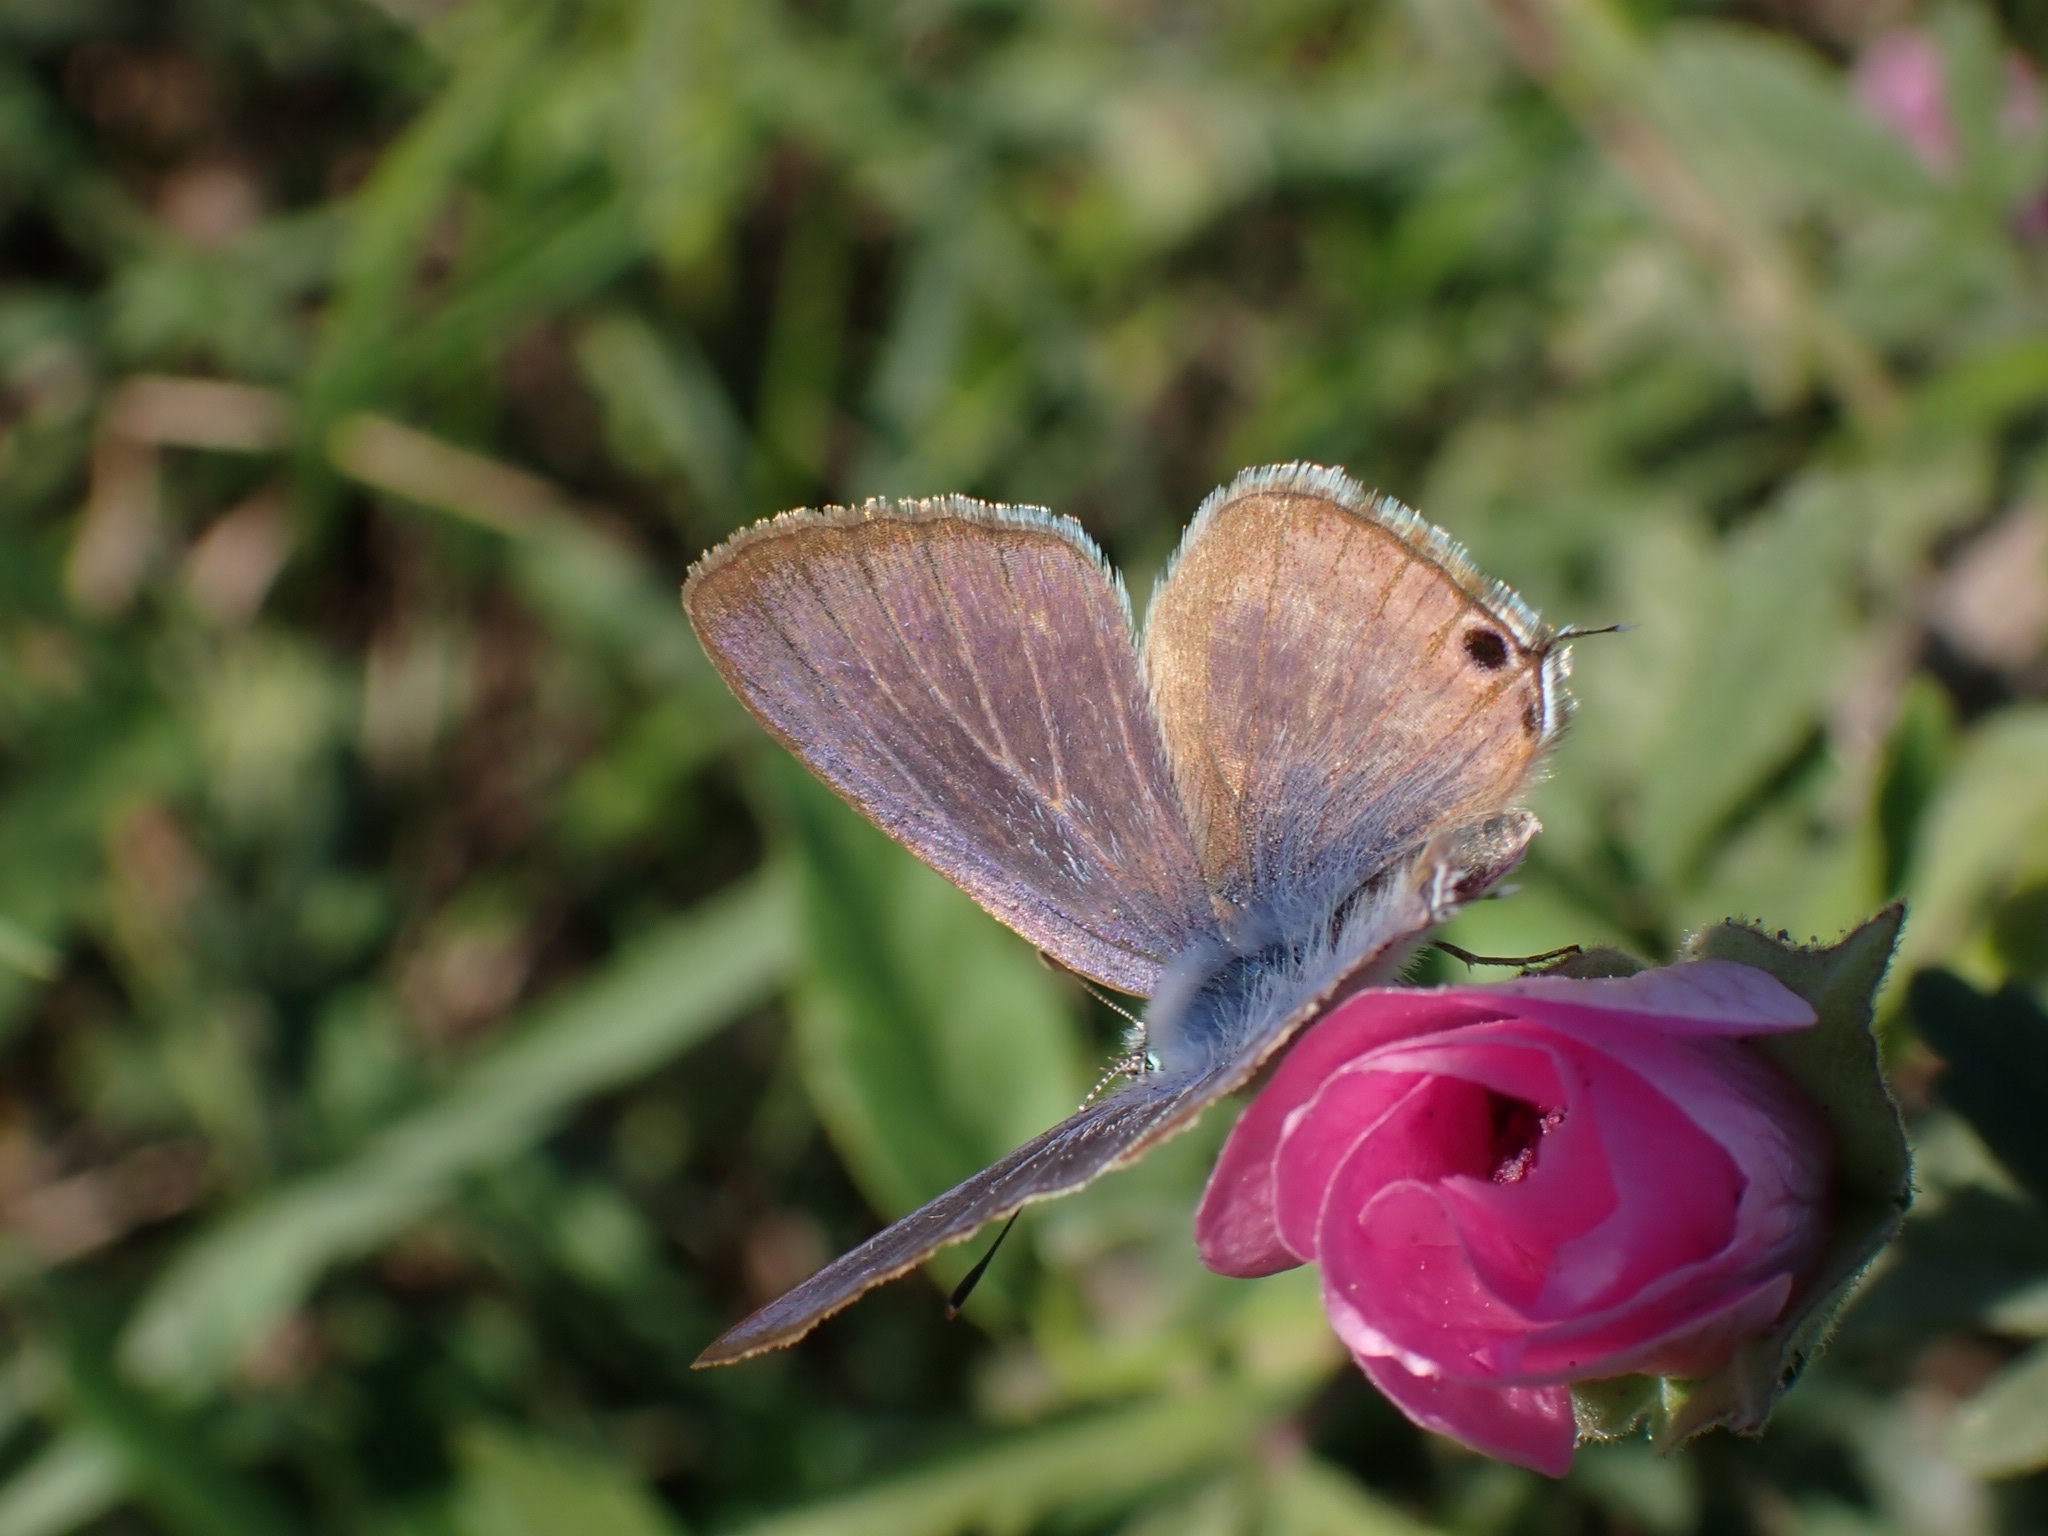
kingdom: Animalia
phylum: Arthropoda
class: Insecta
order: Lepidoptera
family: Lycaenidae
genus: Lampides
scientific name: Lampides boeticus
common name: Long-tailed blue
